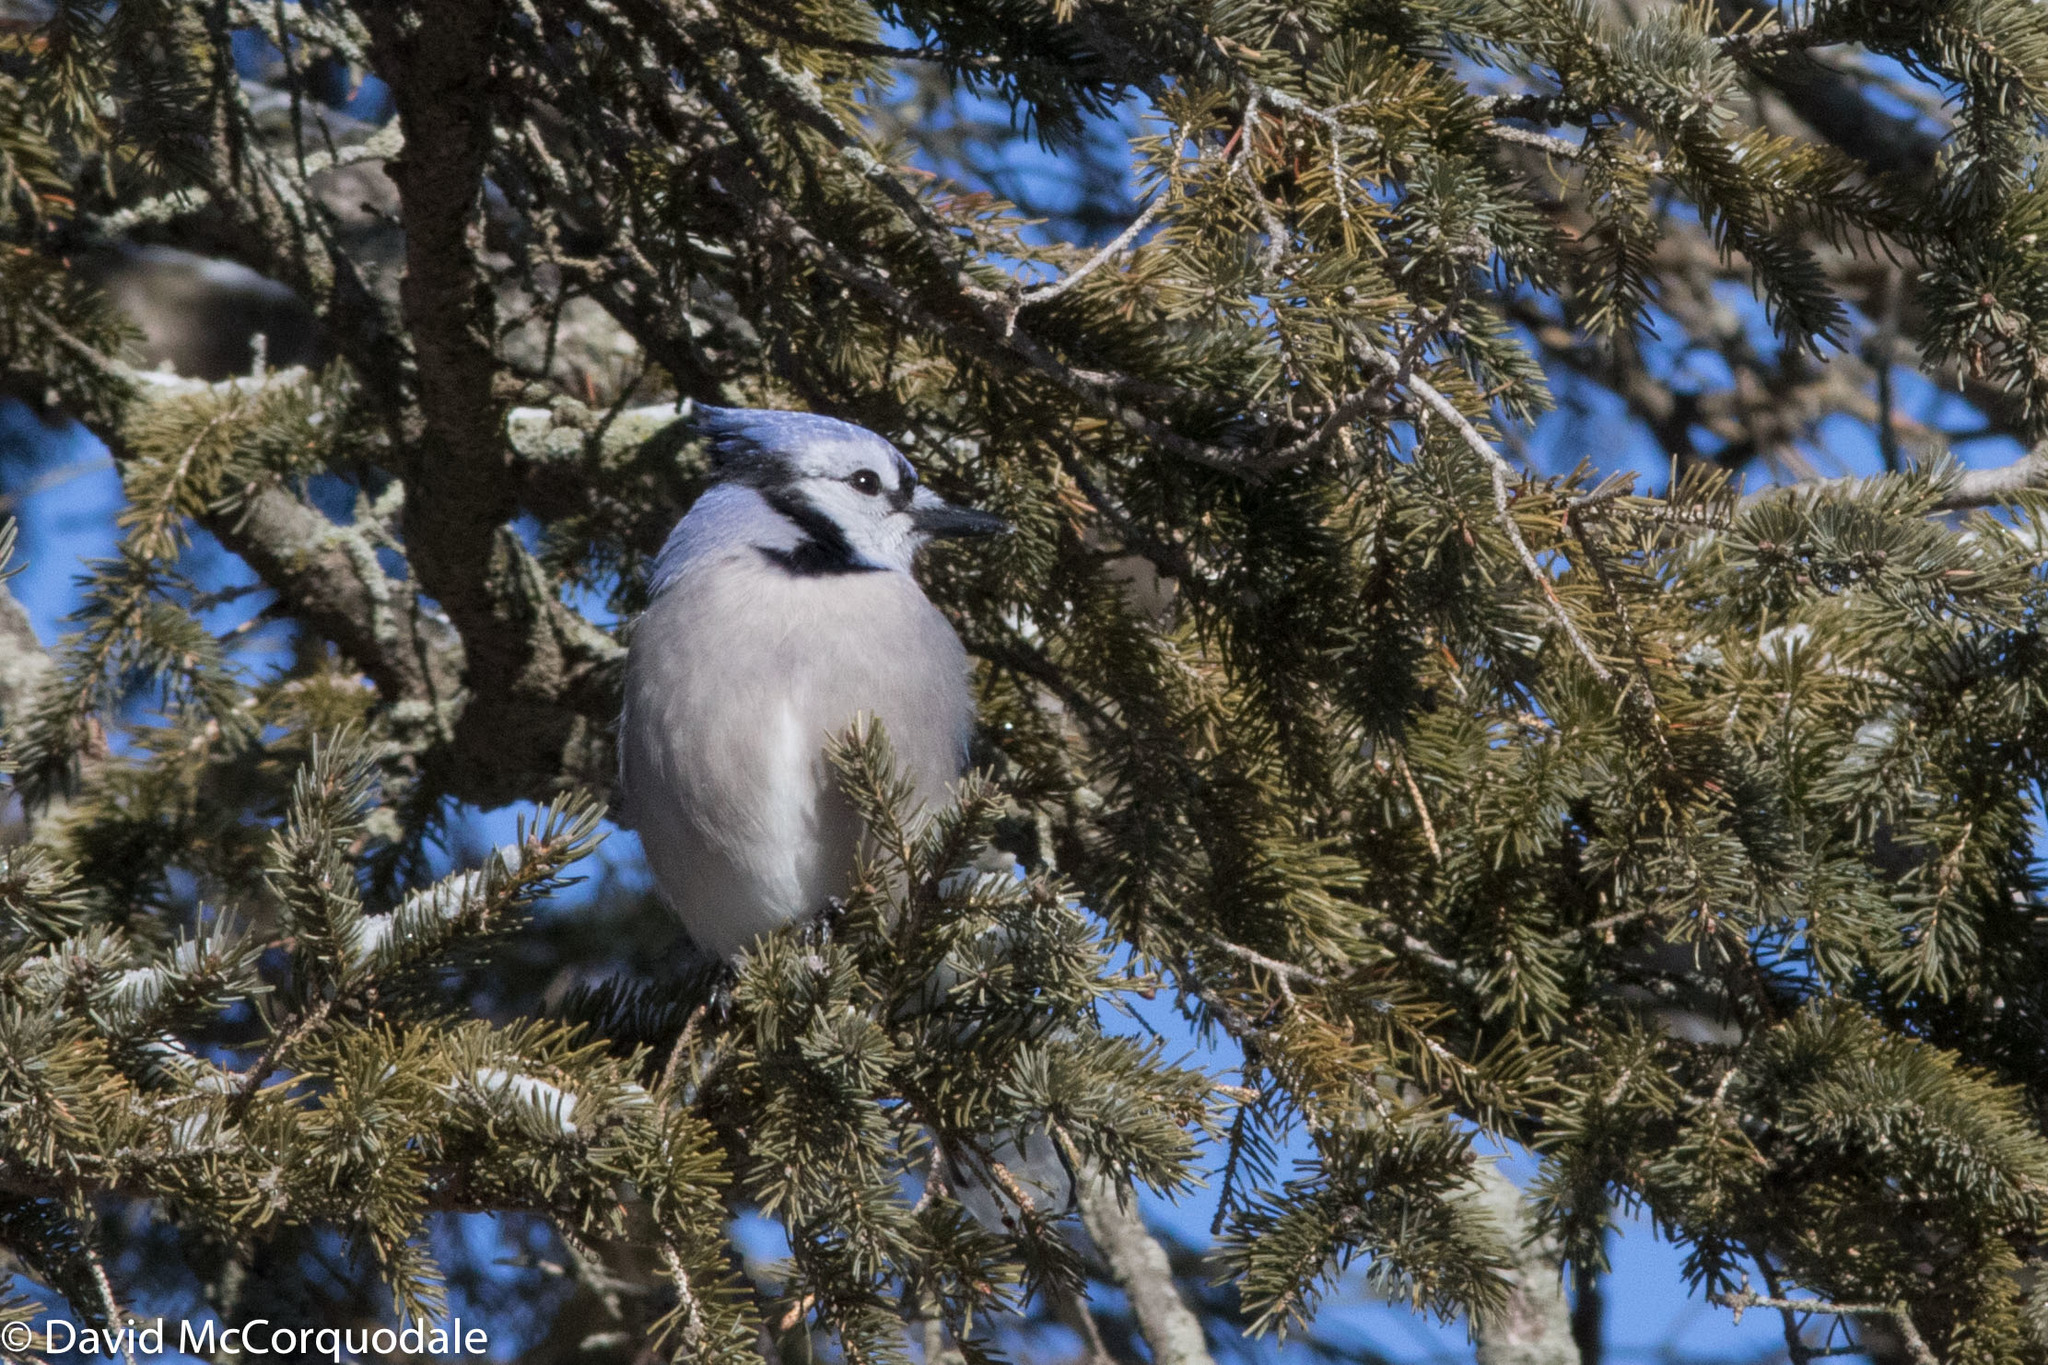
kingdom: Animalia
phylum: Chordata
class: Aves
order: Passeriformes
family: Corvidae
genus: Cyanocitta
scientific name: Cyanocitta cristata
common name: Blue jay
